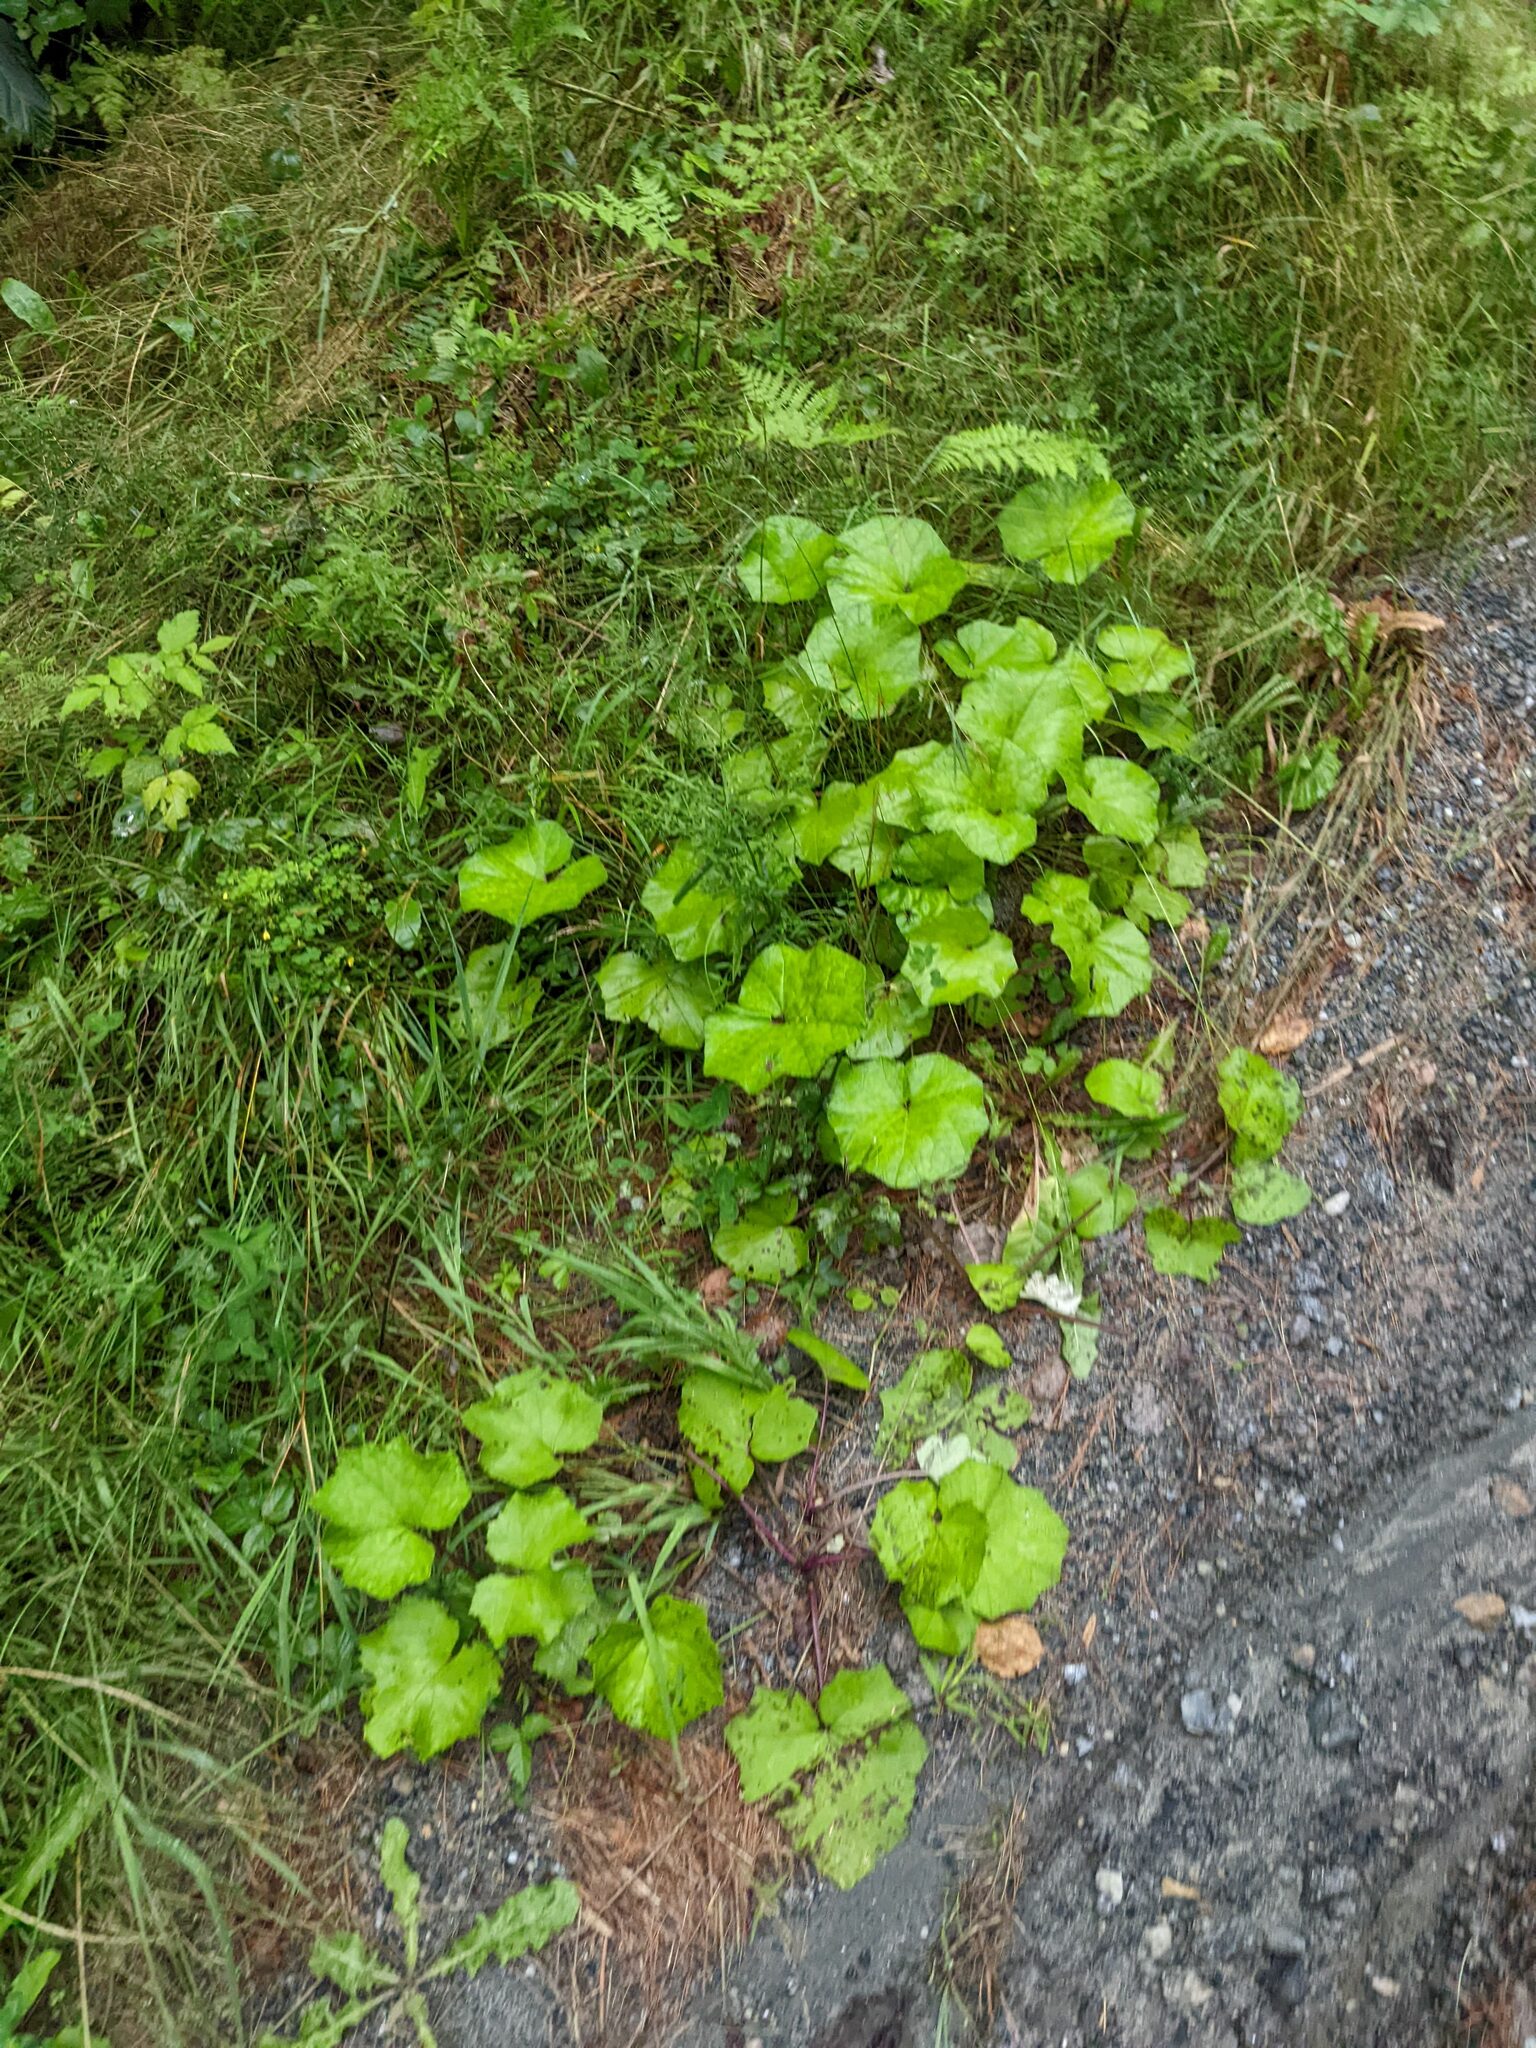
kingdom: Plantae
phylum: Tracheophyta
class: Magnoliopsida
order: Asterales
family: Asteraceae
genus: Tussilago
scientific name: Tussilago farfara
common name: Coltsfoot
